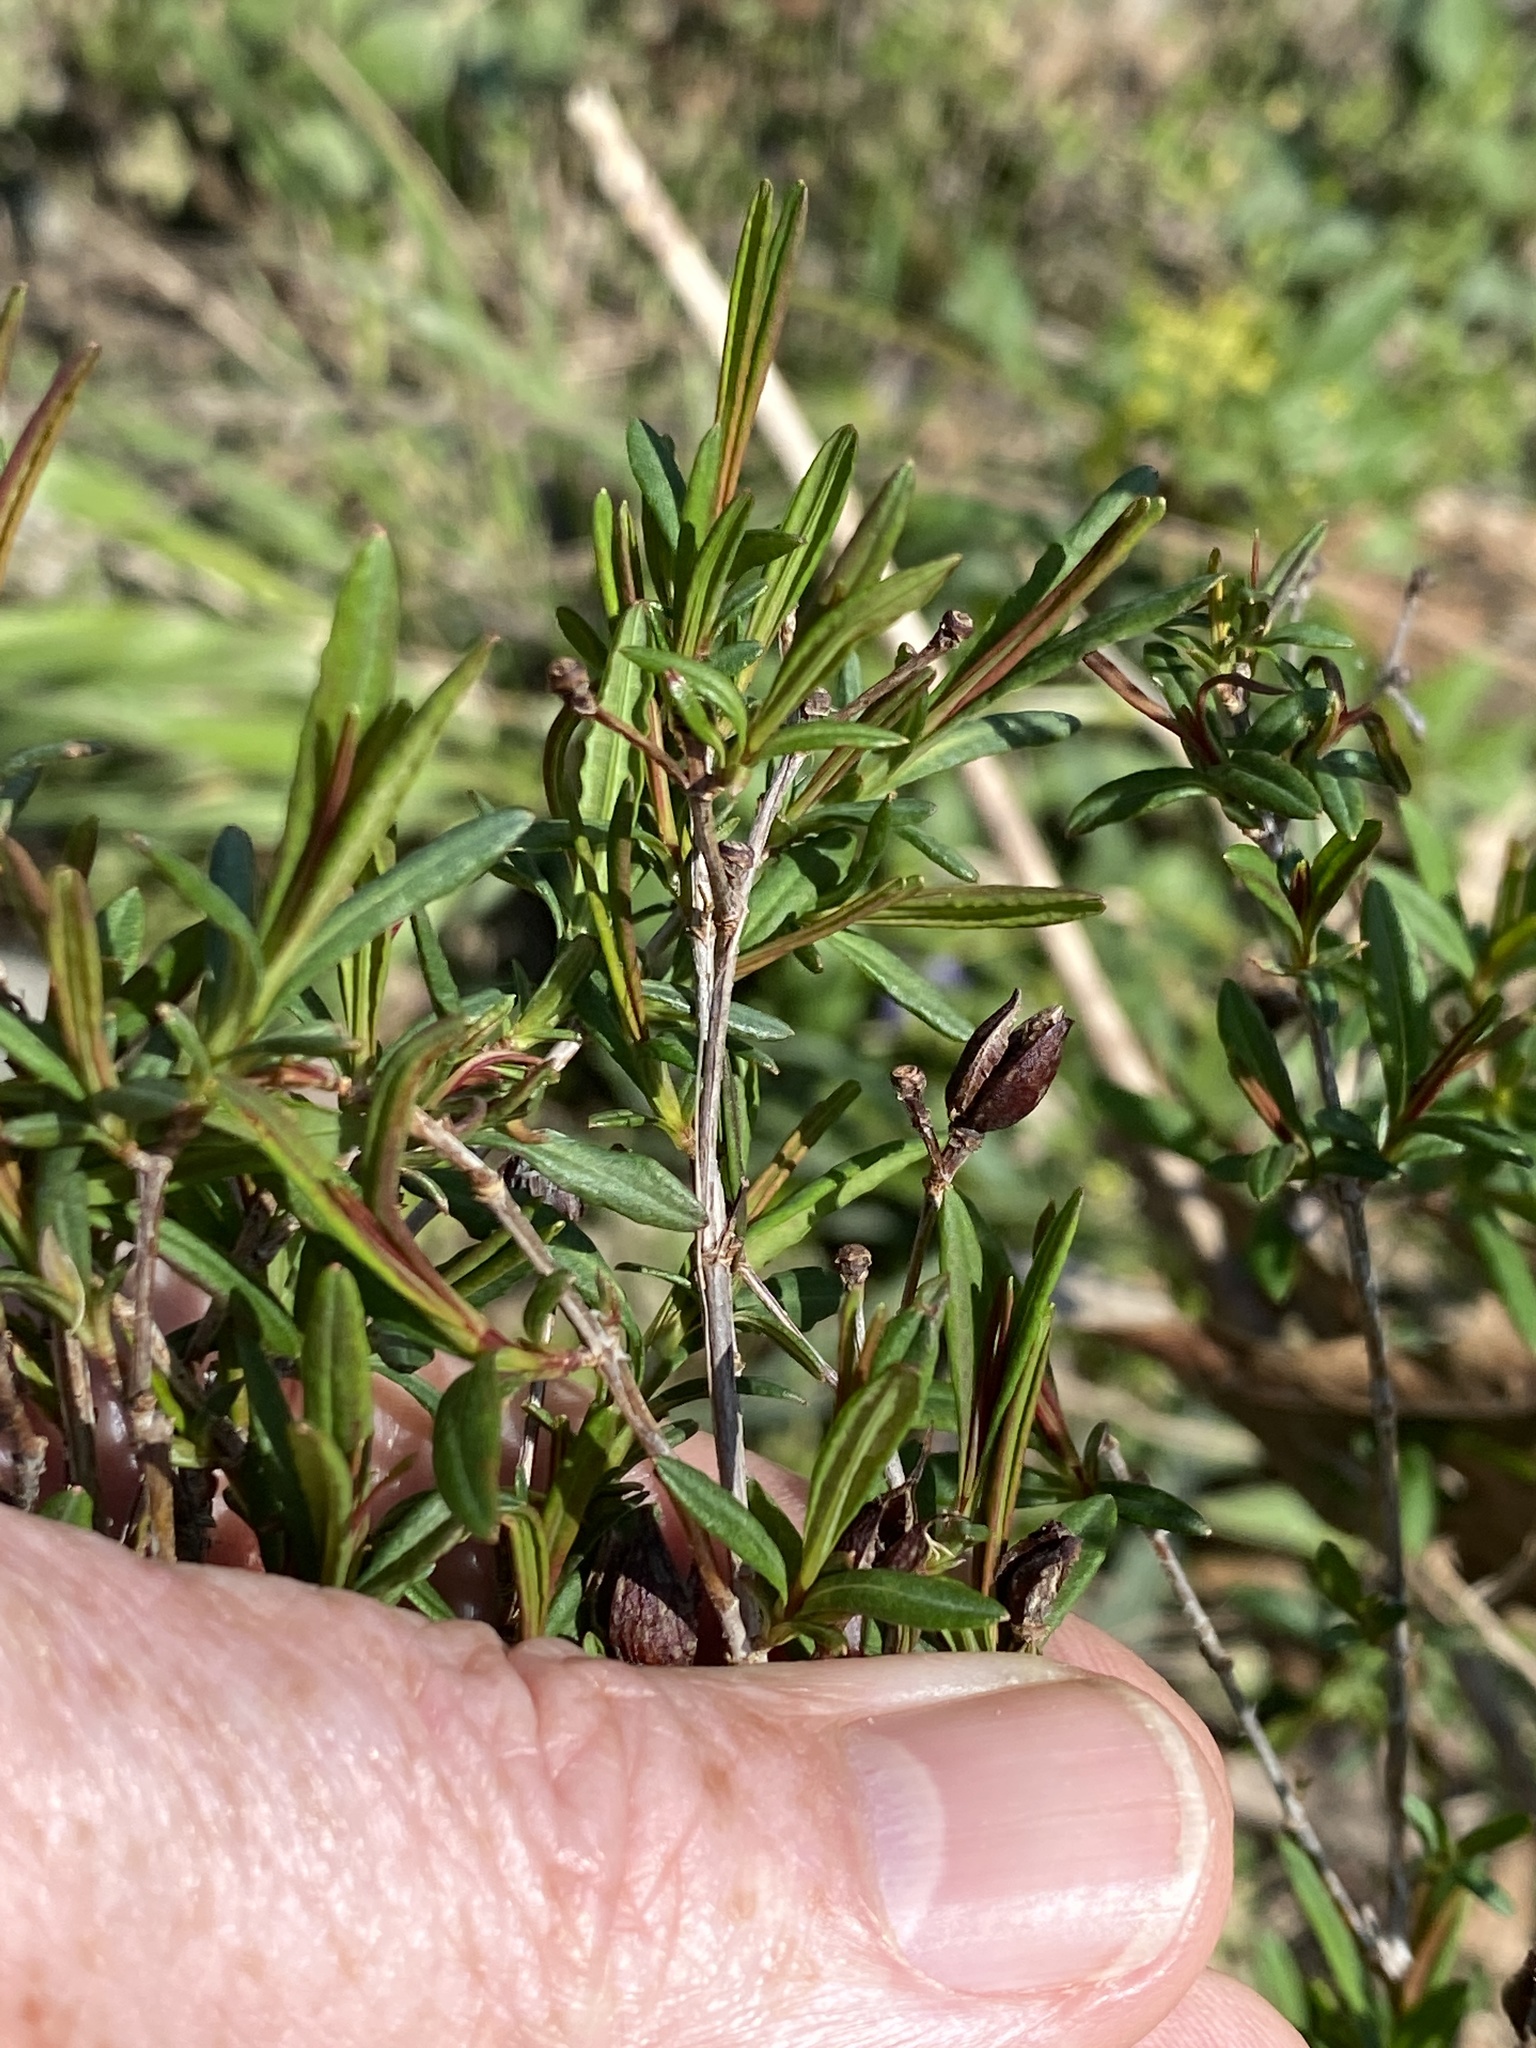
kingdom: Plantae
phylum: Tracheophyta
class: Magnoliopsida
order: Malpighiales
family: Hypericaceae
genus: Hypericum
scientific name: Hypericum lobocarpum
